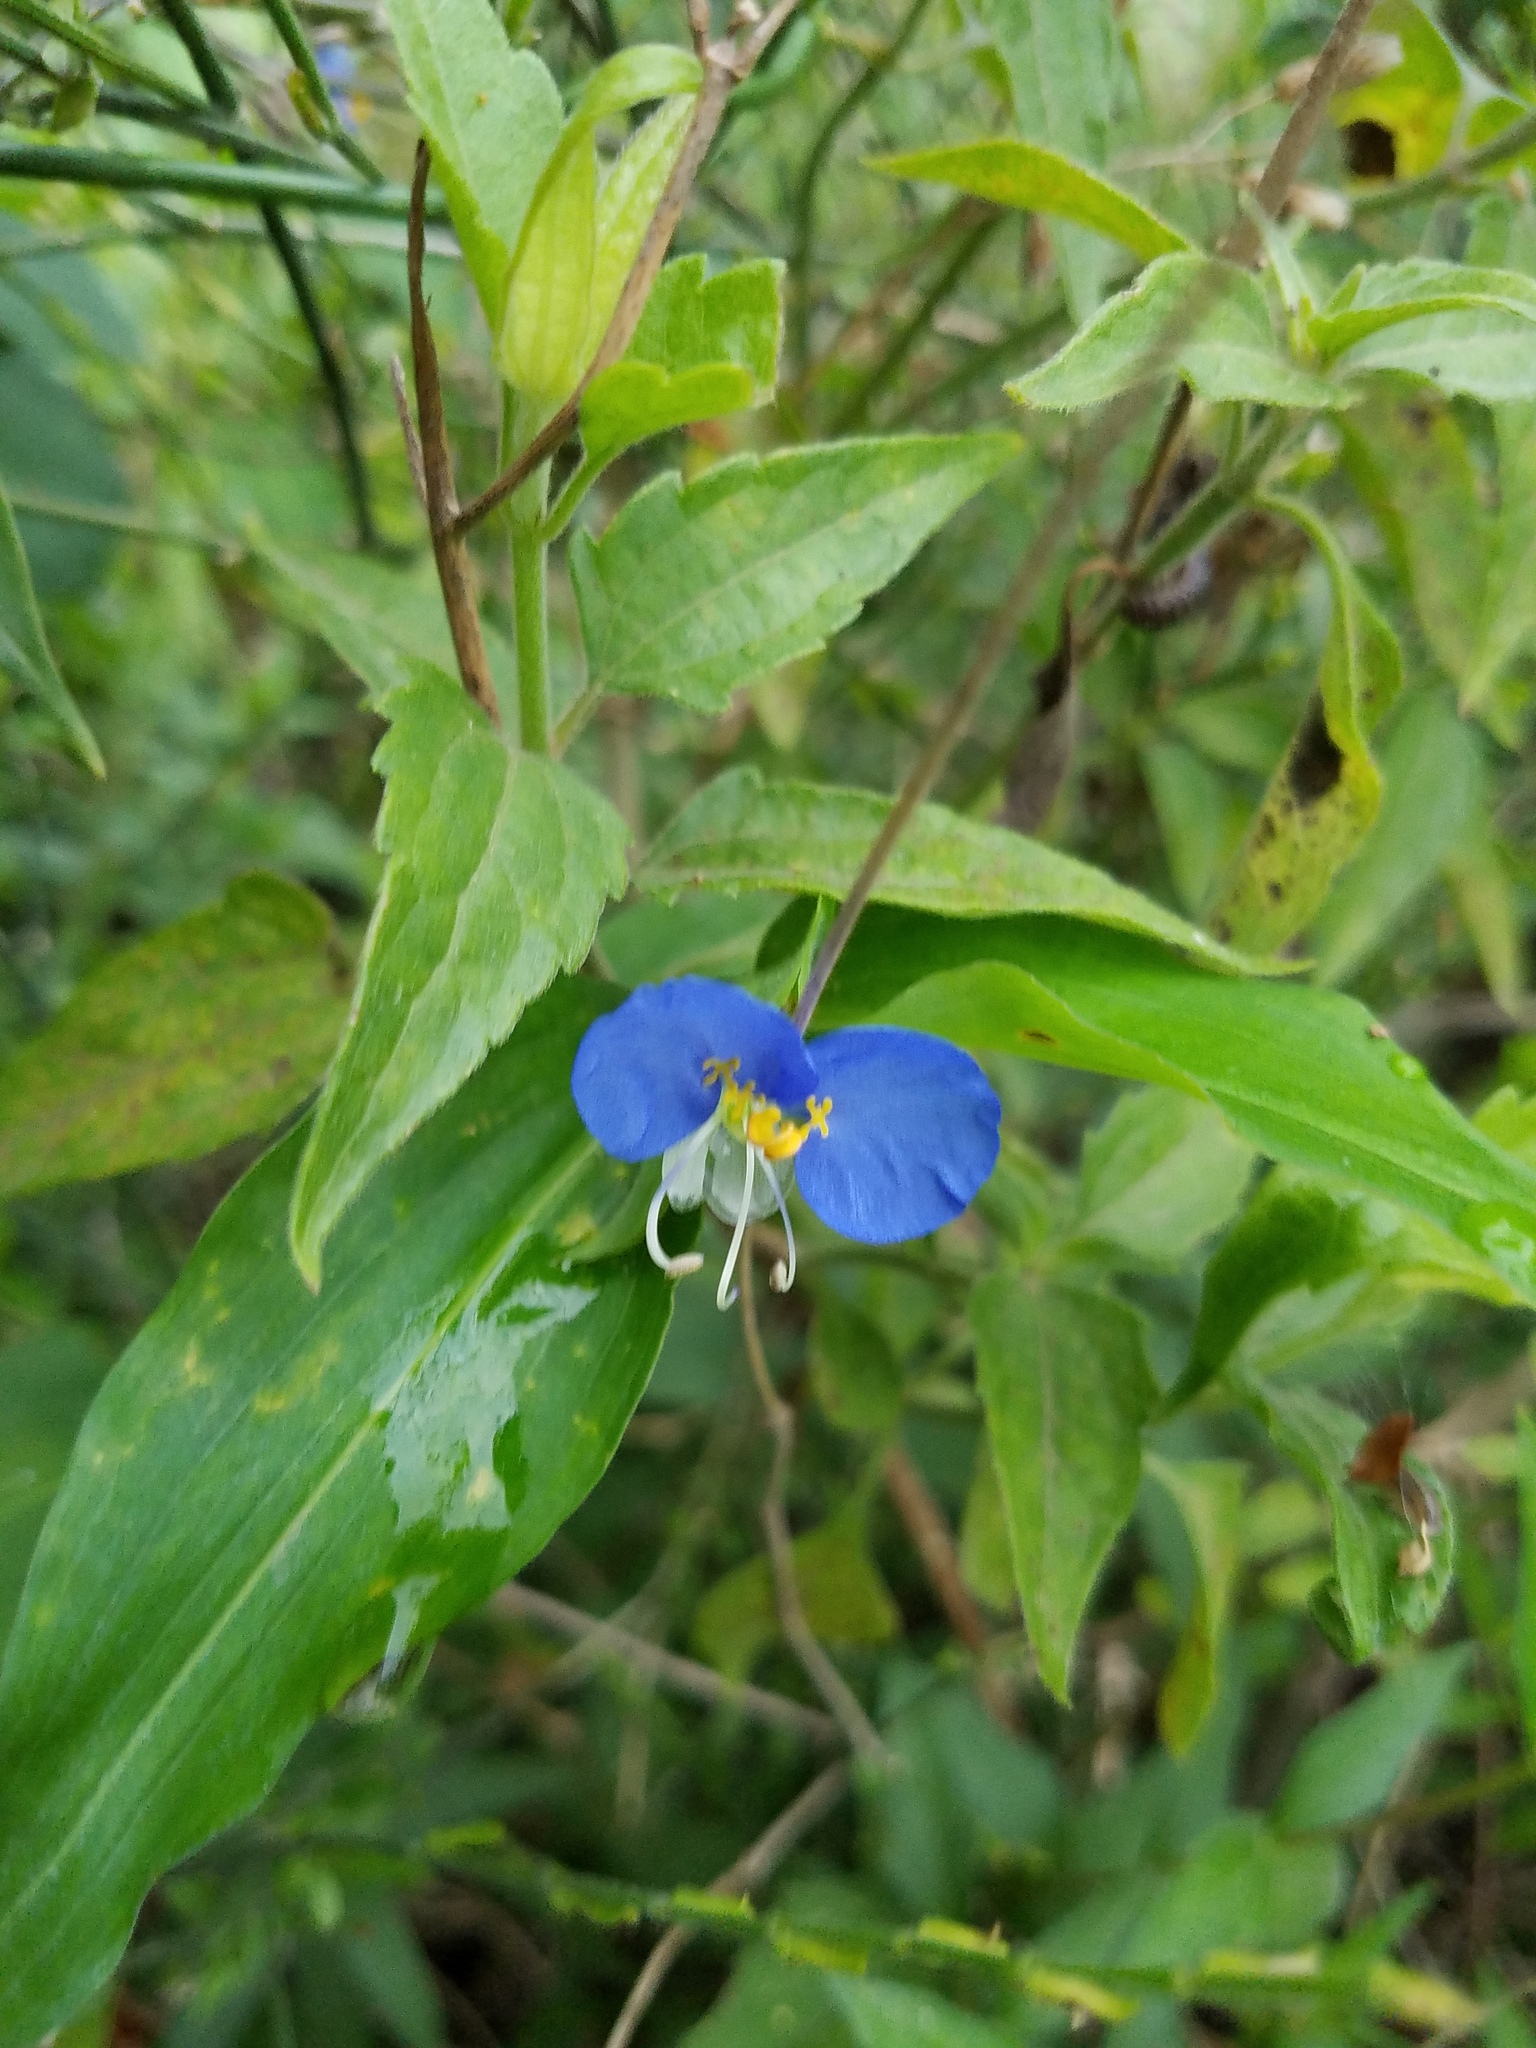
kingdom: Plantae
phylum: Tracheophyta
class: Liliopsida
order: Commelinales
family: Commelinaceae
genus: Commelina
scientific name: Commelina erecta
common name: Blousel blommetjie
